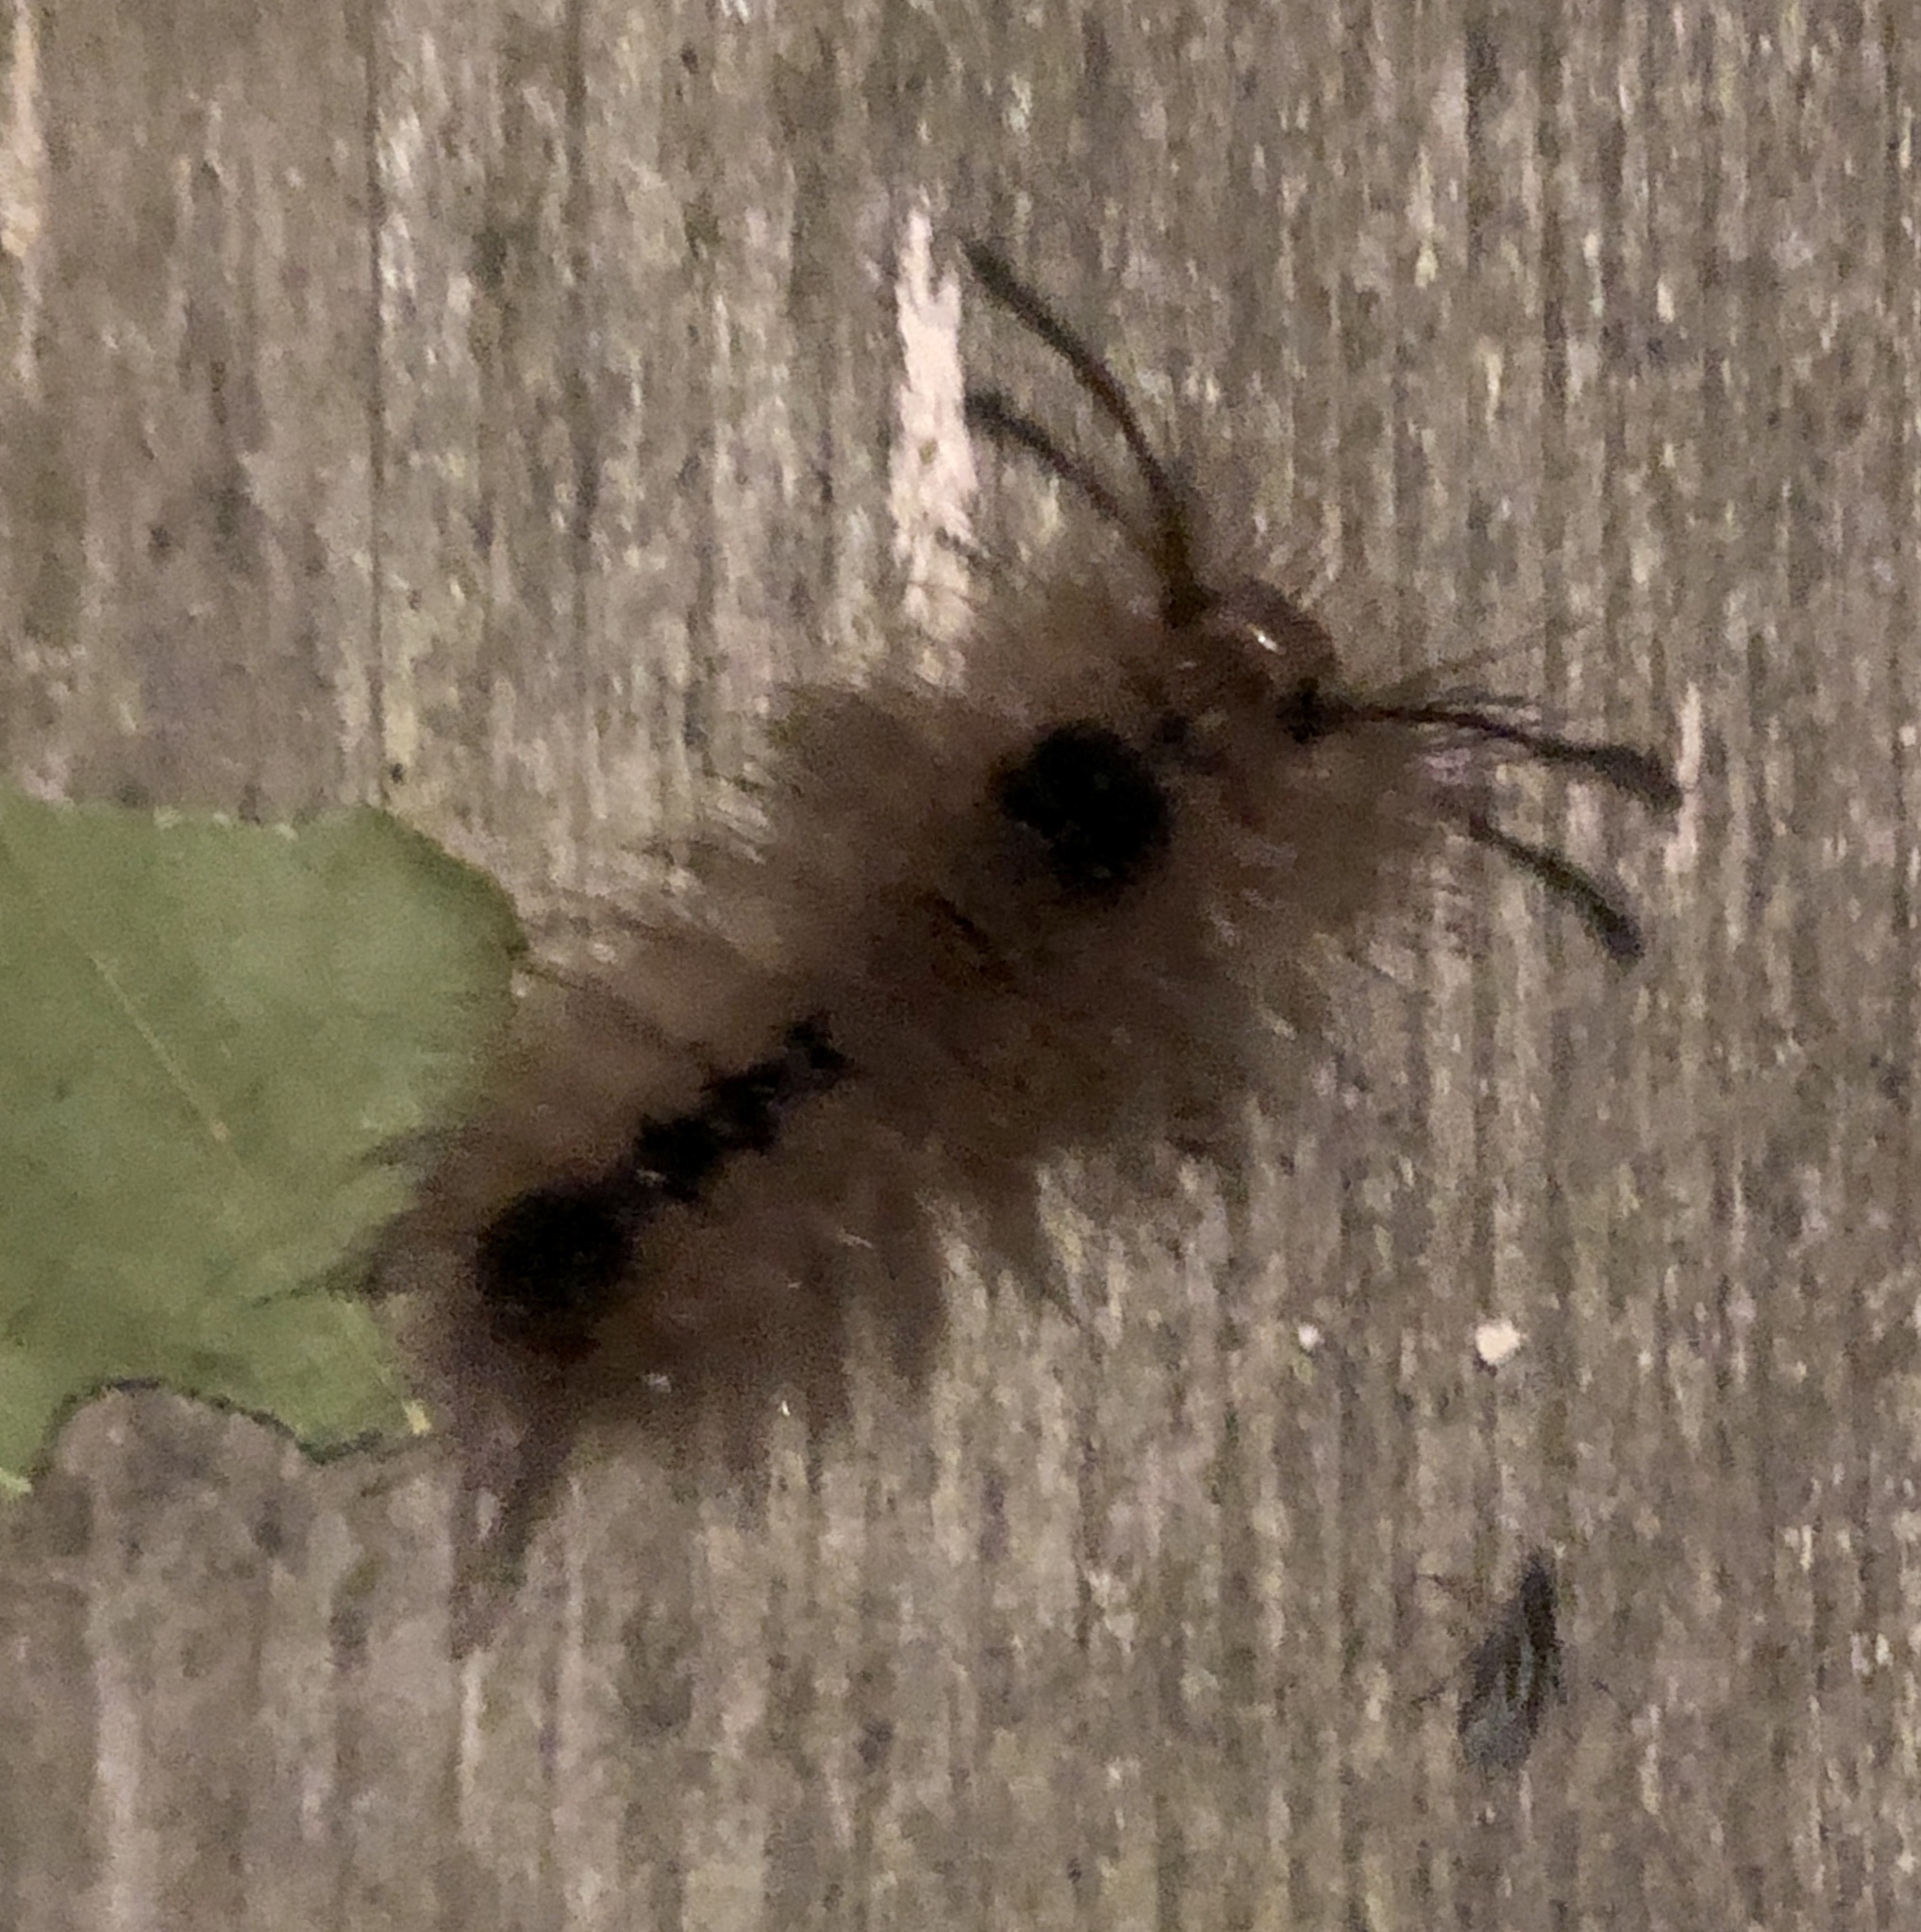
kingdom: Animalia
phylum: Arthropoda
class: Insecta
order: Lepidoptera
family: Erebidae
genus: Dasychira
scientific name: Dasychira obliquata
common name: Streaked tussock moth
